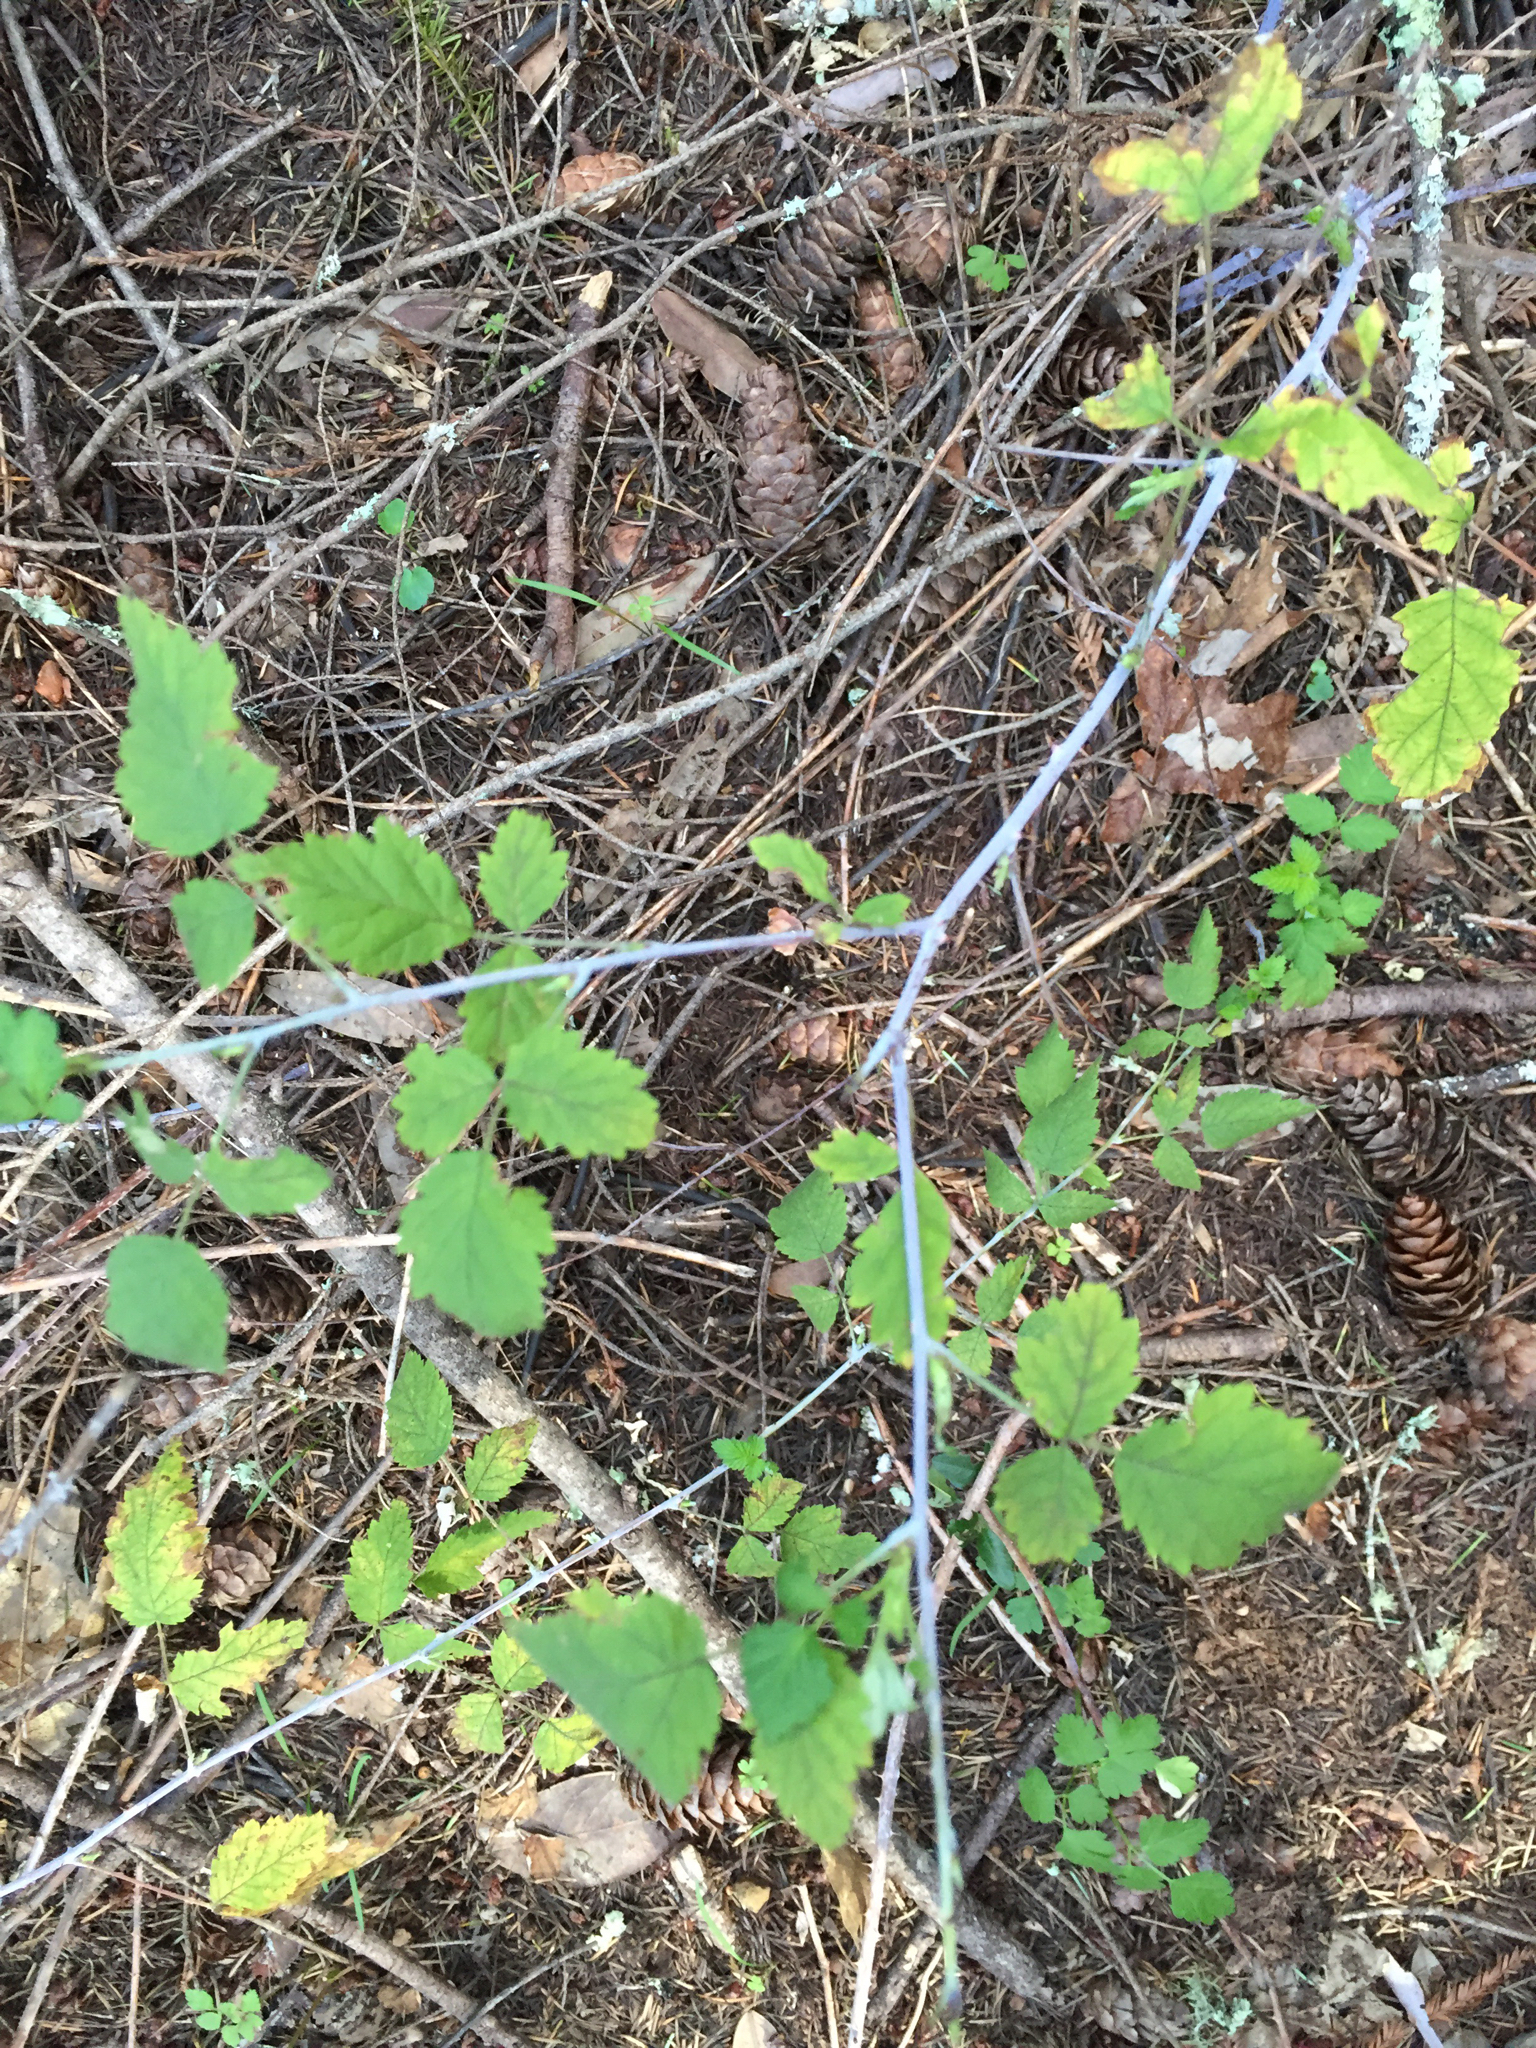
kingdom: Plantae
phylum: Tracheophyta
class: Magnoliopsida
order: Rosales
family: Rosaceae
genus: Rubus
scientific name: Rubus leucodermis
